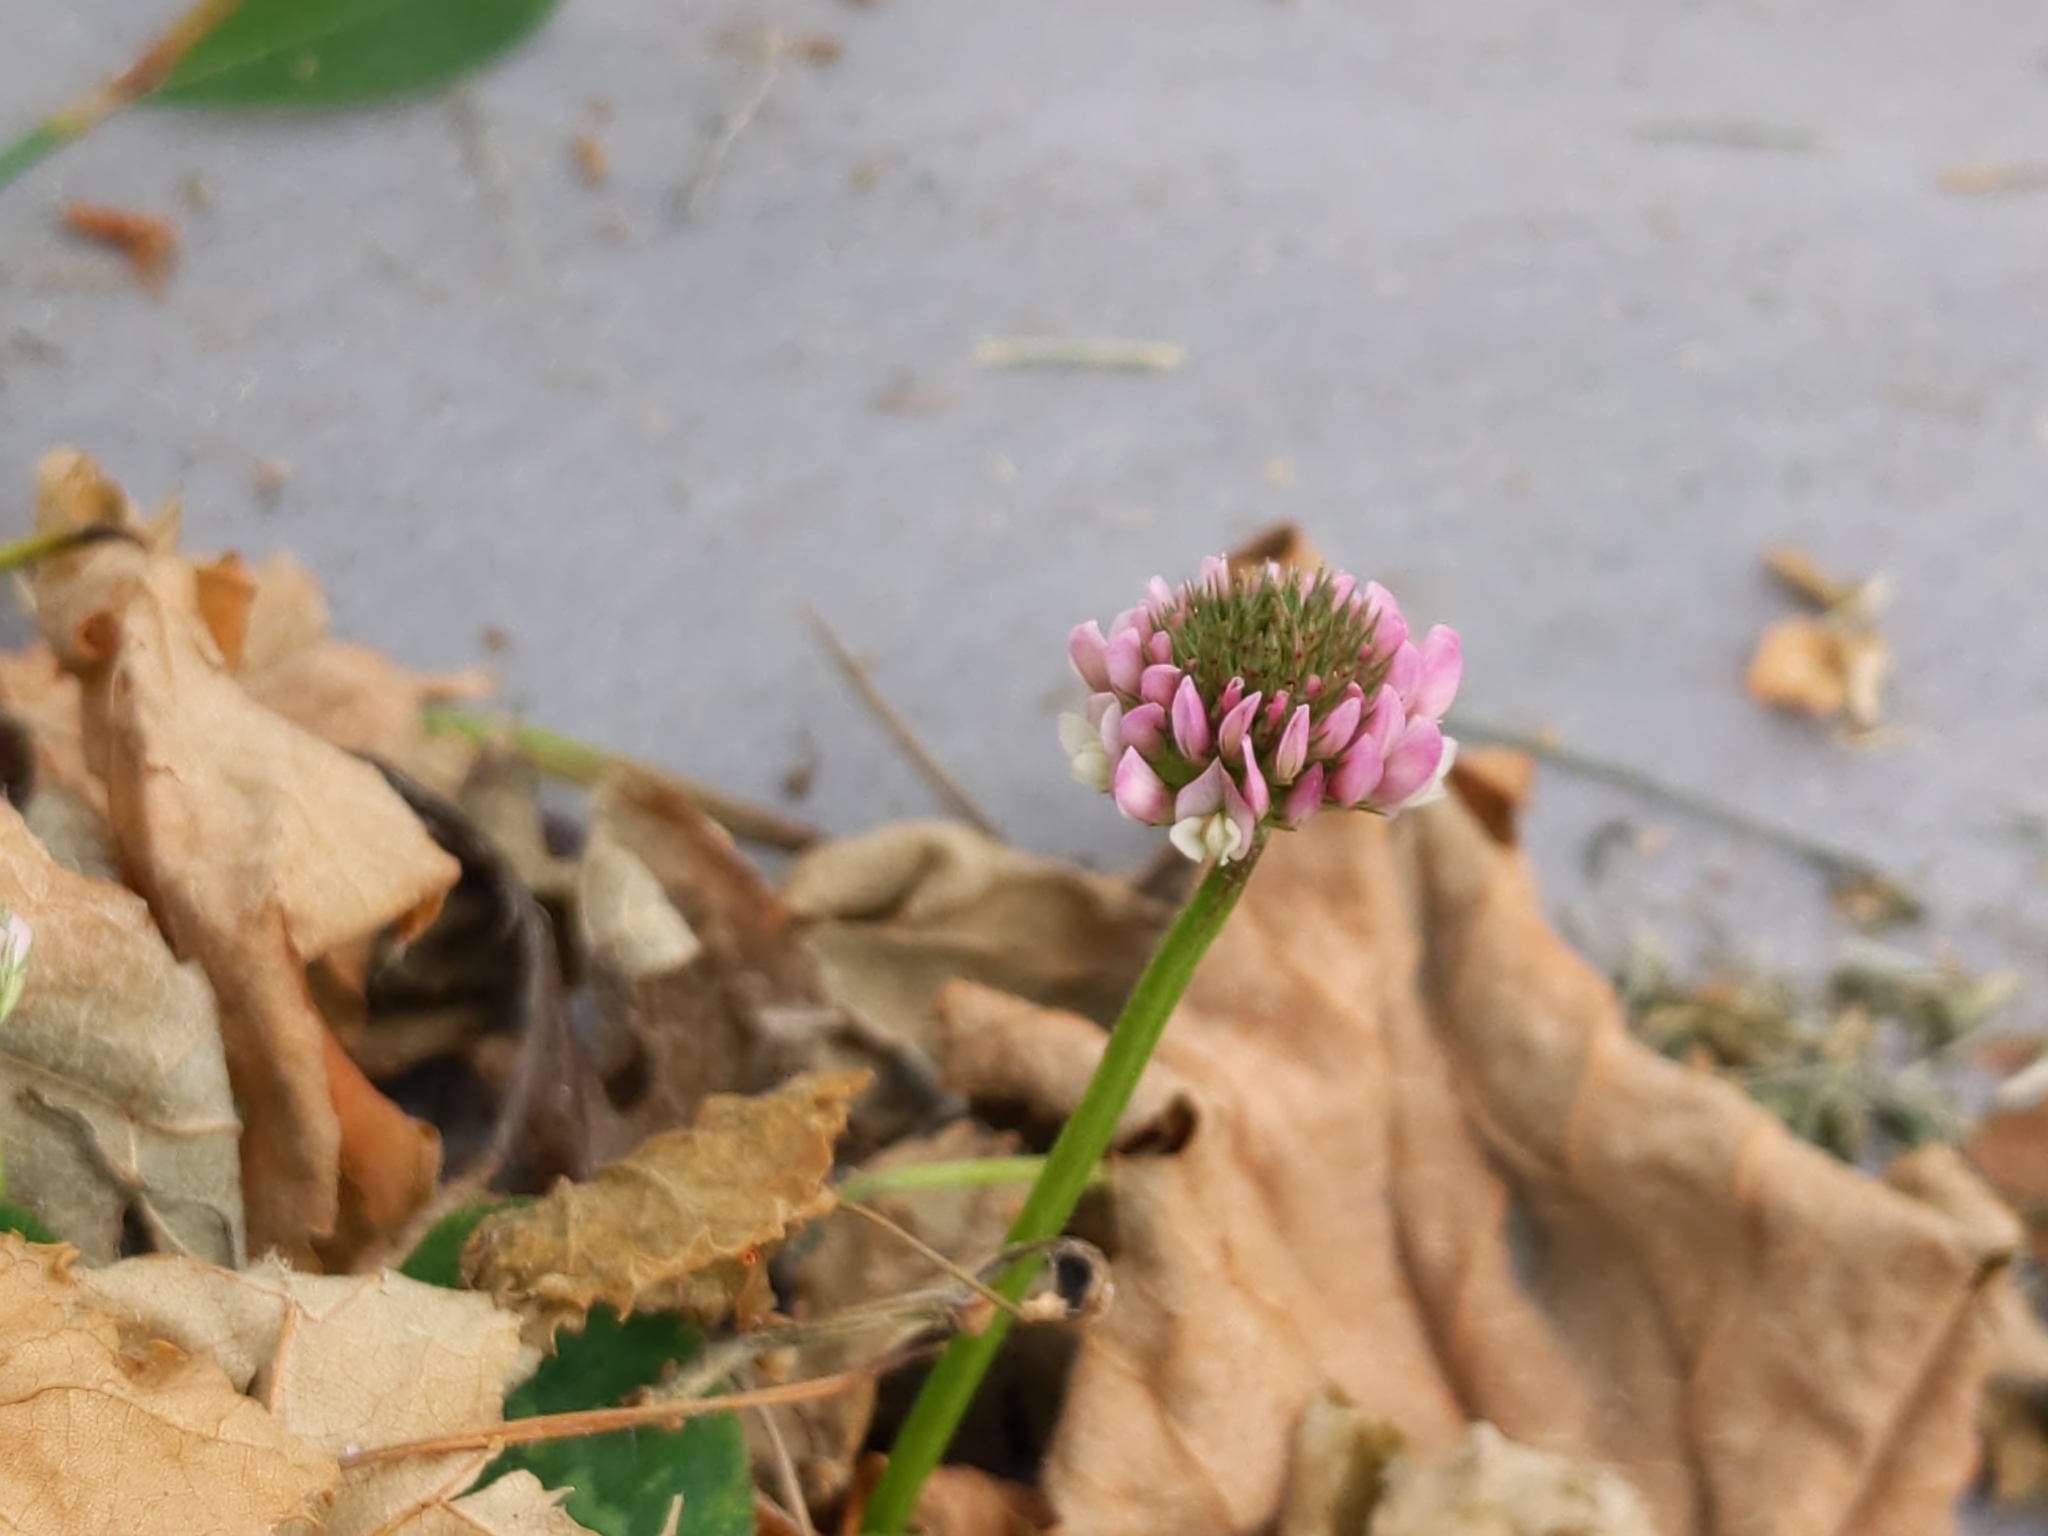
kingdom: Plantae
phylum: Tracheophyta
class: Magnoliopsida
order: Fabales
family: Fabaceae
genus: Trifolium
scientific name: Trifolium repens
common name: White clover
